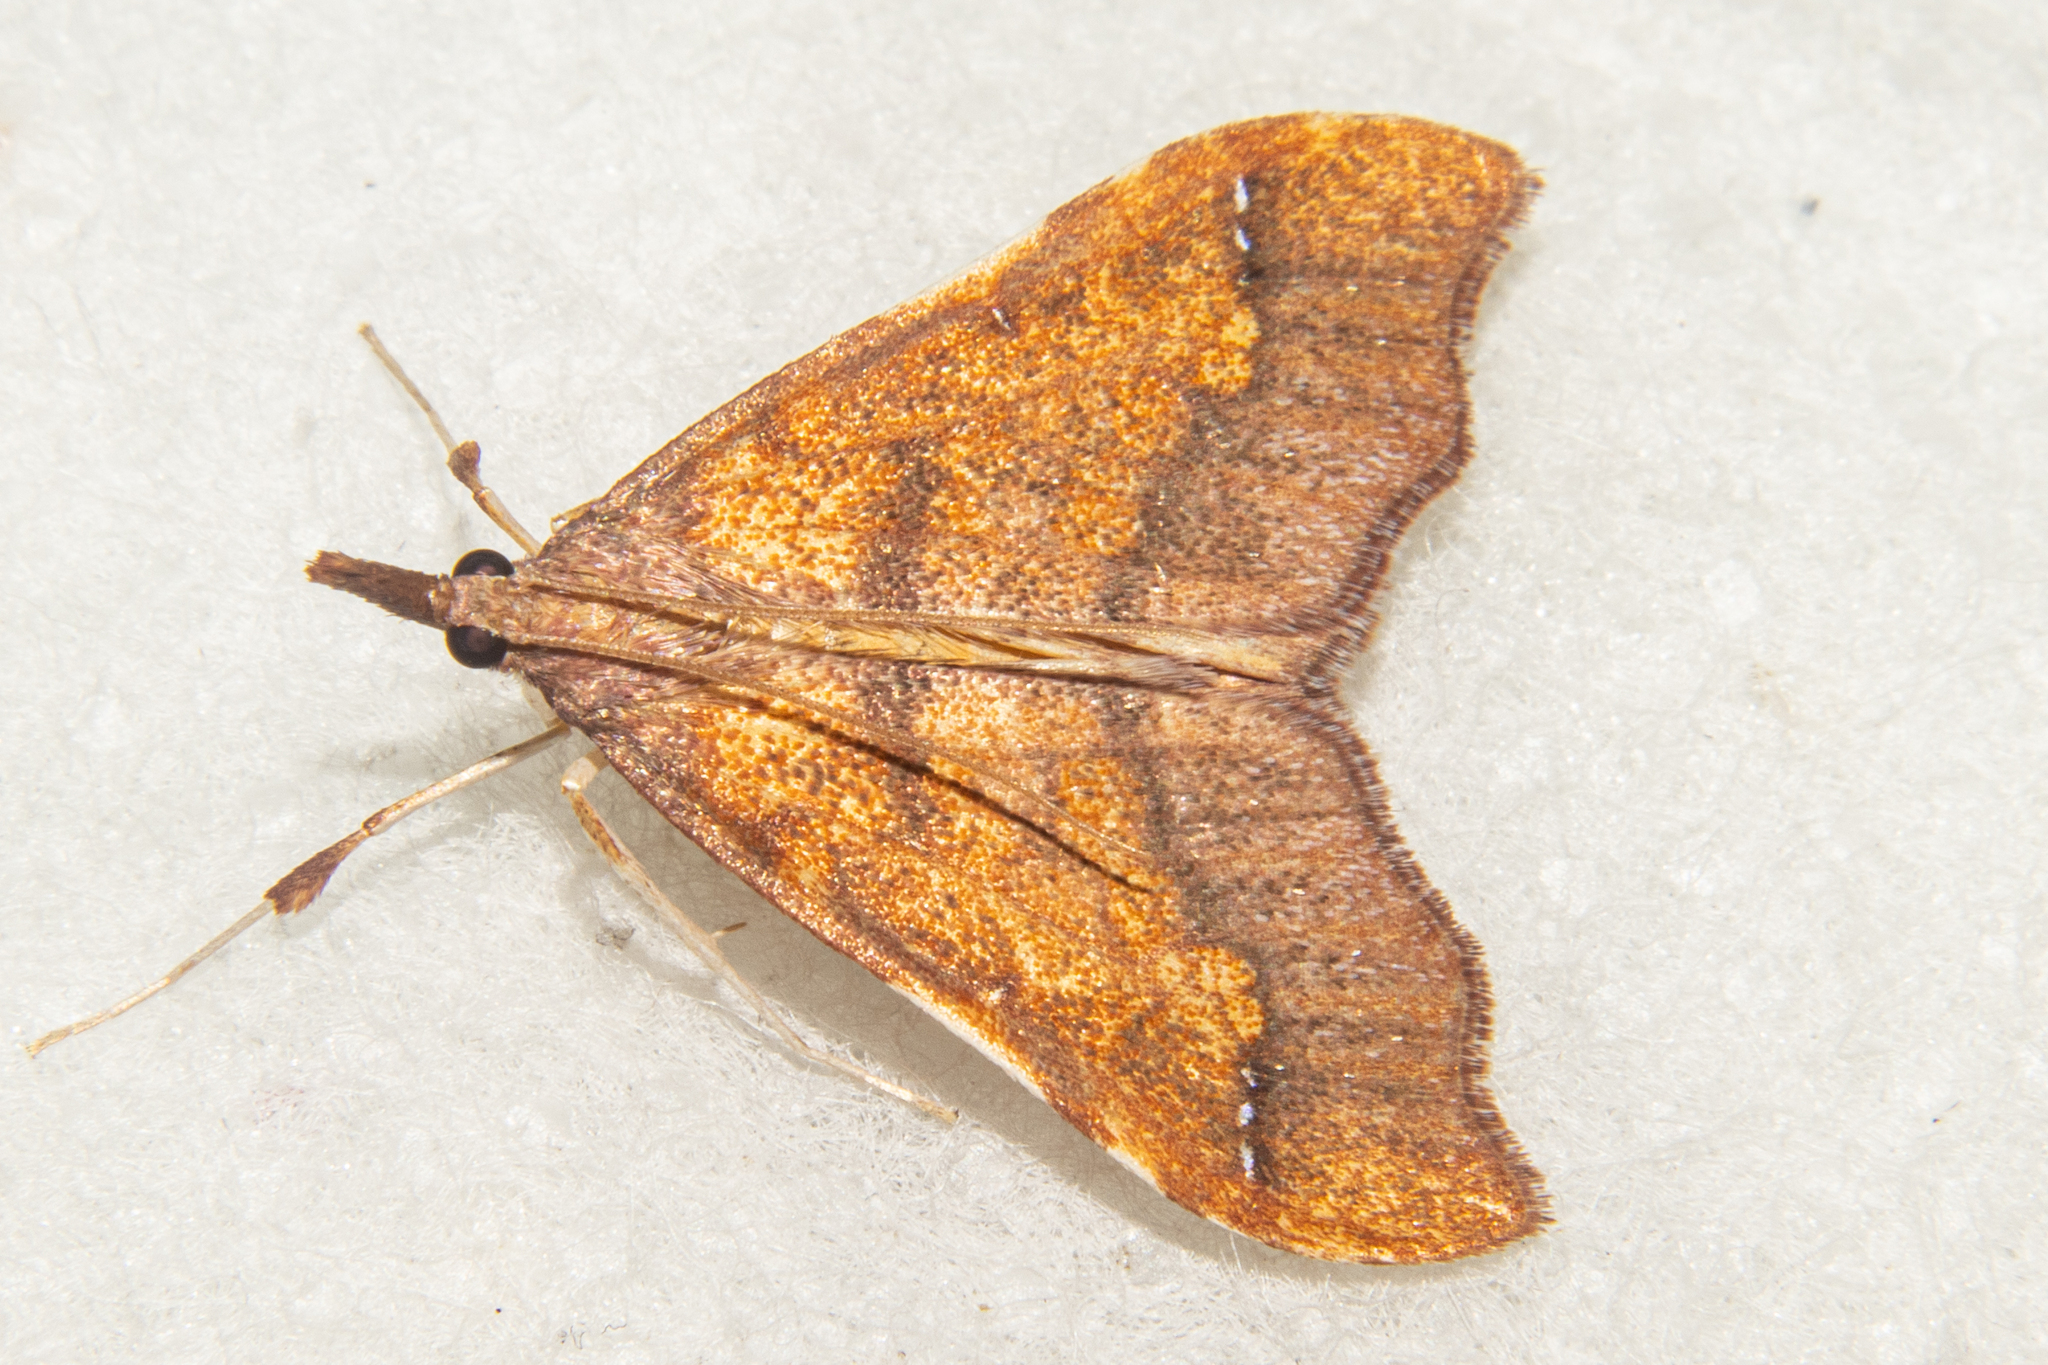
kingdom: Animalia
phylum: Arthropoda
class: Insecta
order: Lepidoptera
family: Crambidae
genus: Deana
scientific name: Deana hybreasalis
